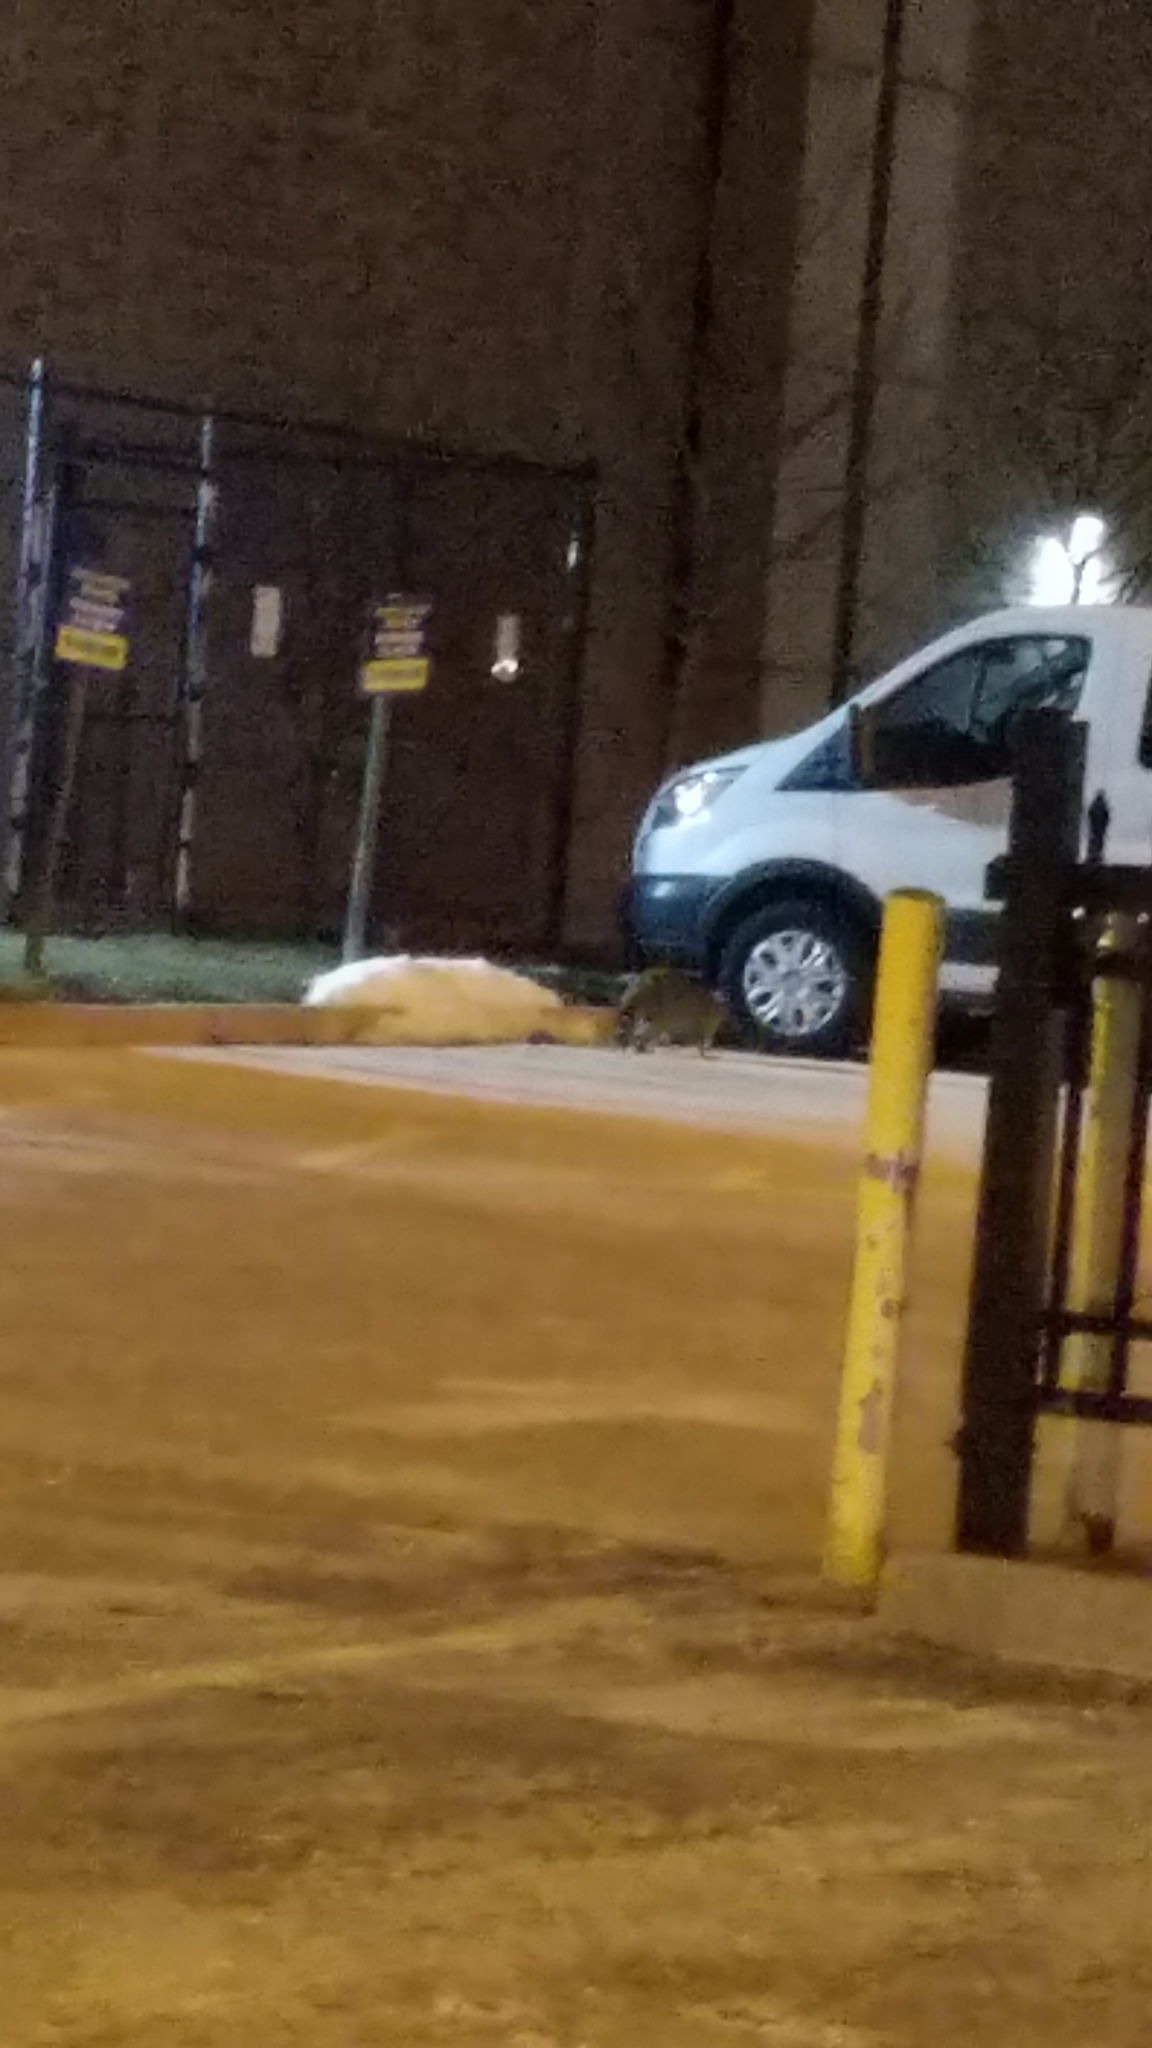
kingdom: Animalia
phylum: Chordata
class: Mammalia
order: Carnivora
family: Procyonidae
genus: Procyon
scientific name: Procyon lotor
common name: Raccoon
